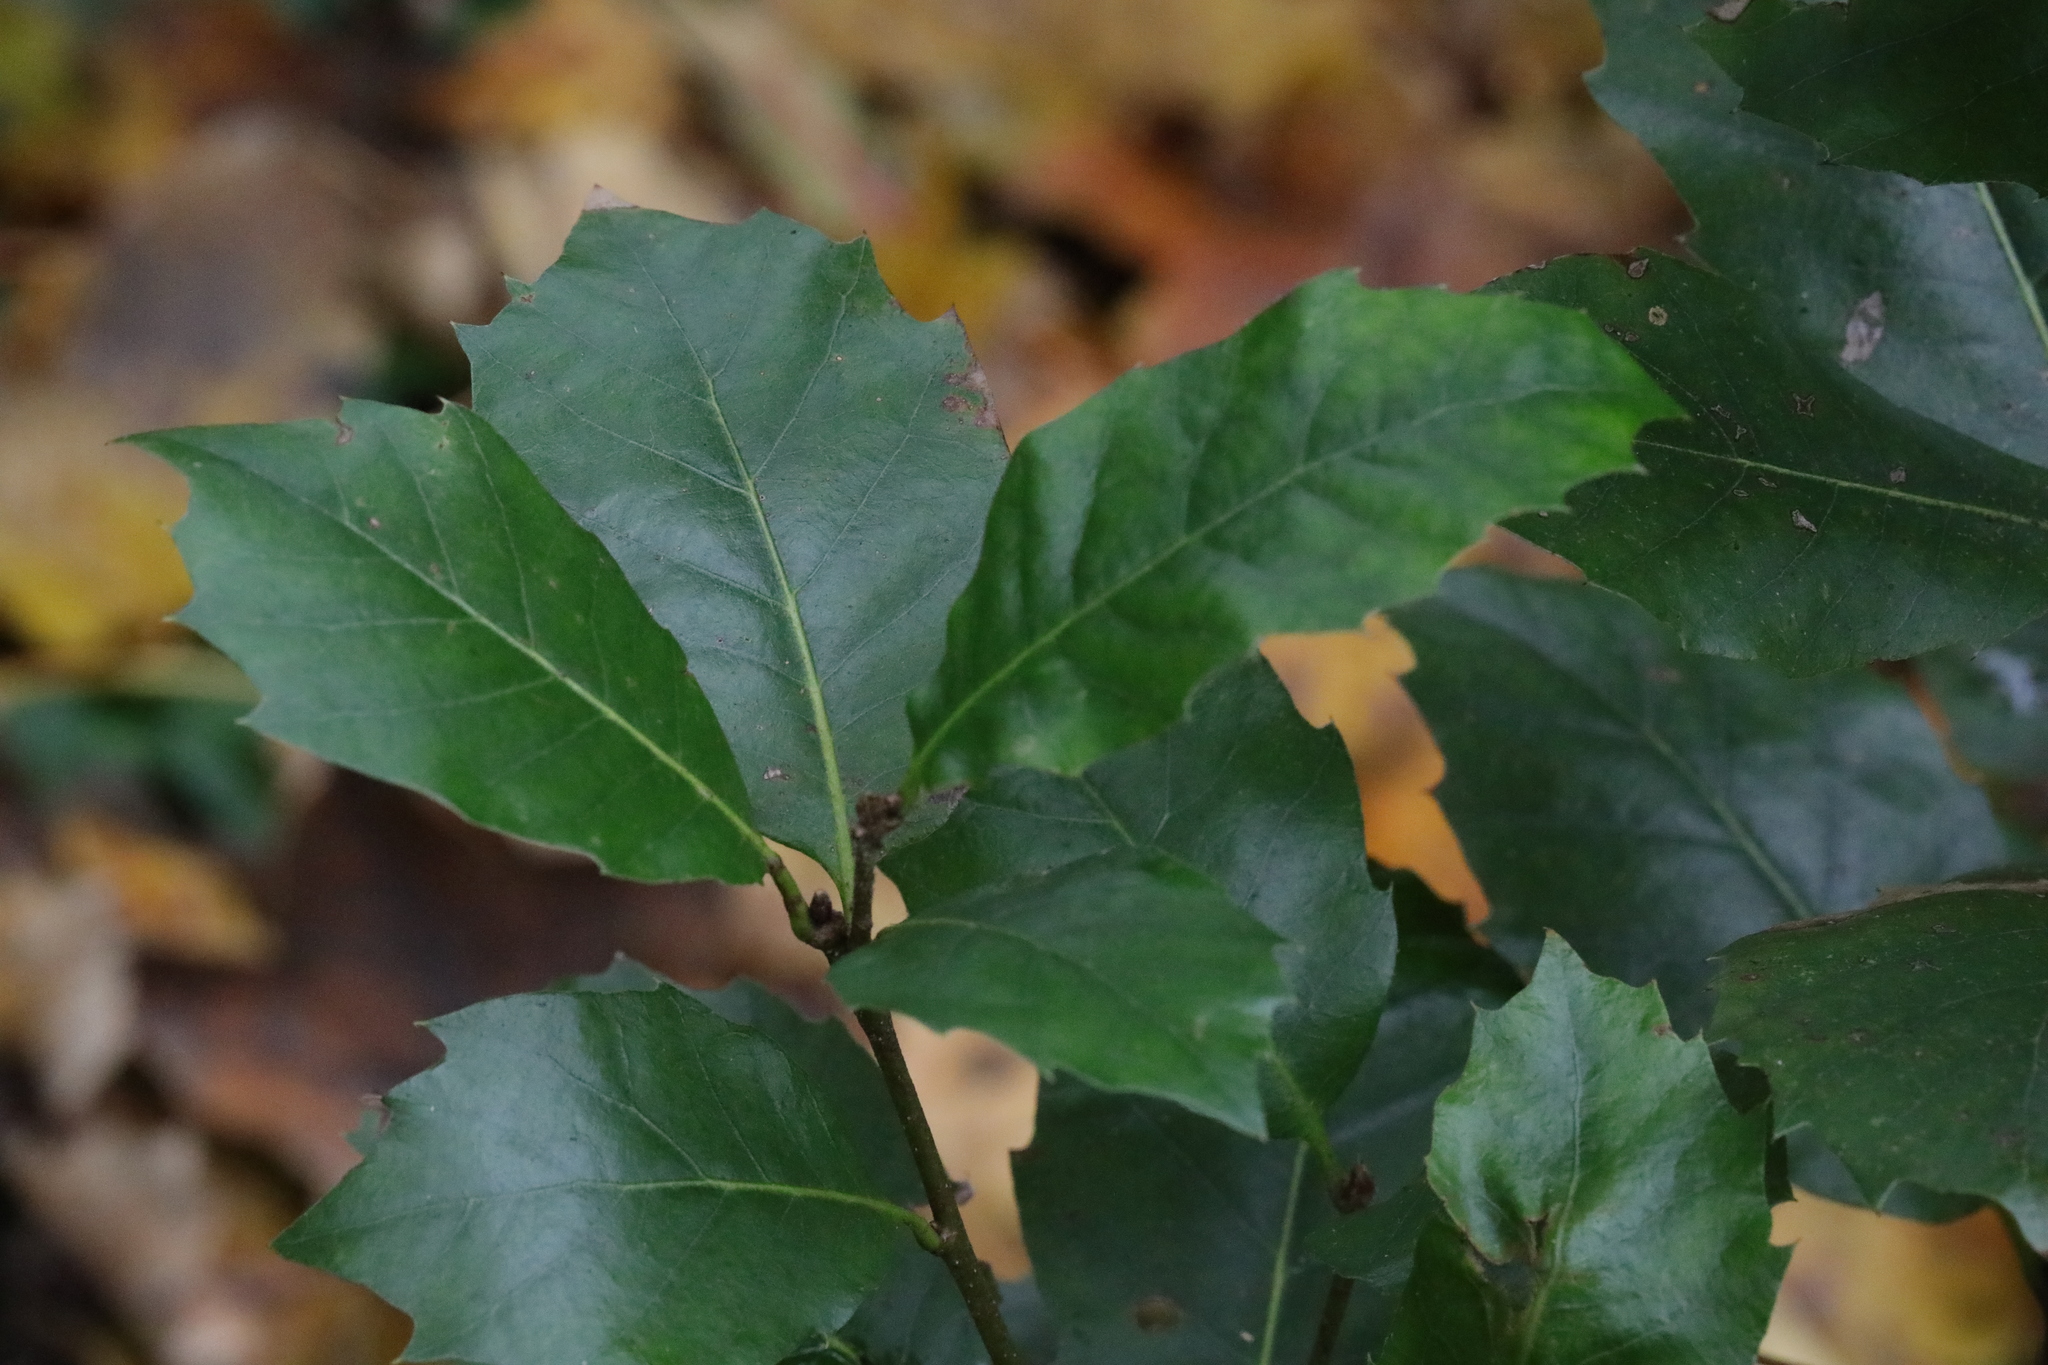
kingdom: Plantae
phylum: Tracheophyta
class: Magnoliopsida
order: Fagales
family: Fagaceae
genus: Quercus
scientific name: Quercus ilex
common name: Evergreen oak
